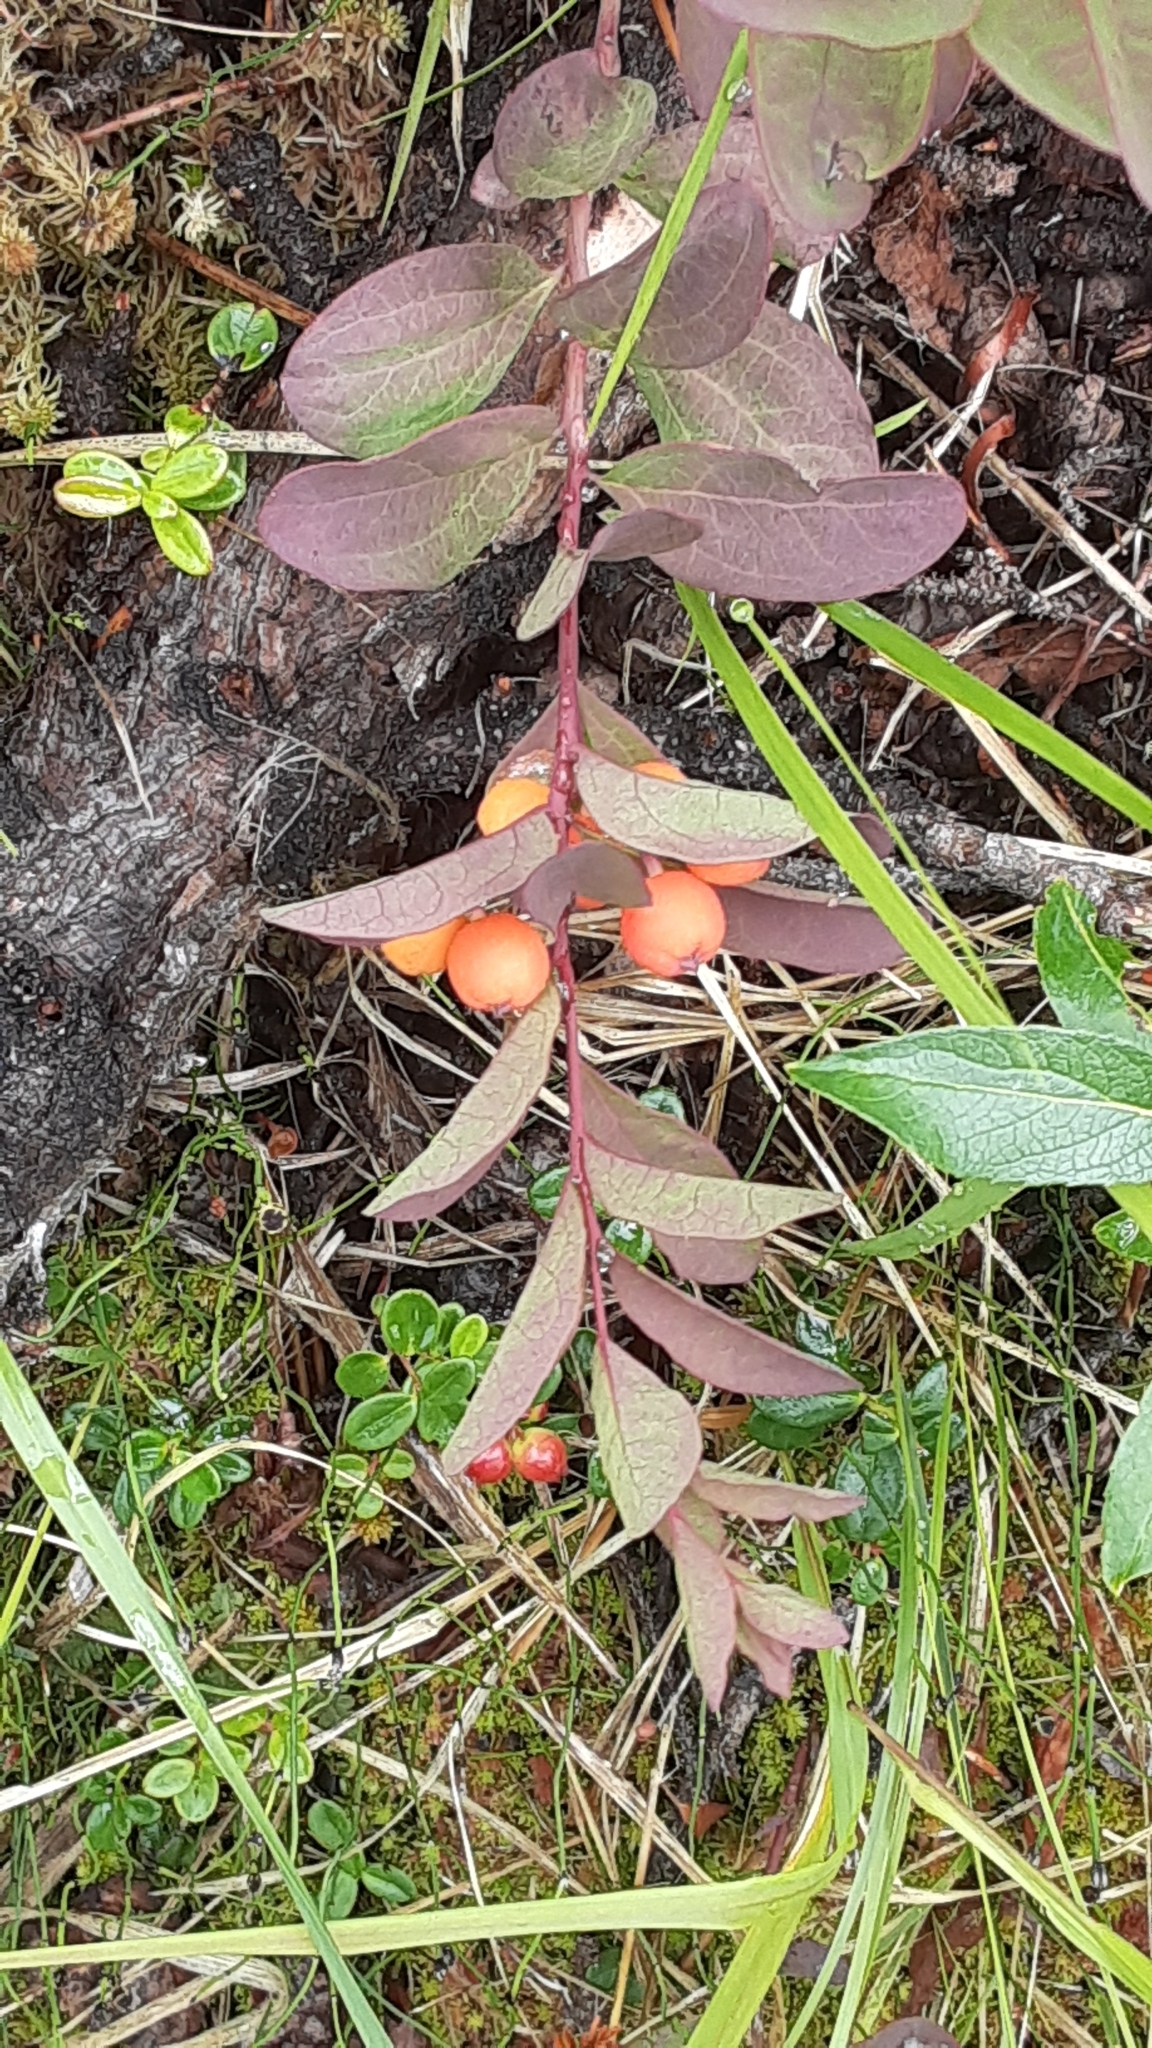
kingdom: Plantae
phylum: Tracheophyta
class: Magnoliopsida
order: Santalales
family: Comandraceae
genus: Geocaulon
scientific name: Geocaulon lividum
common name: Earthberry
